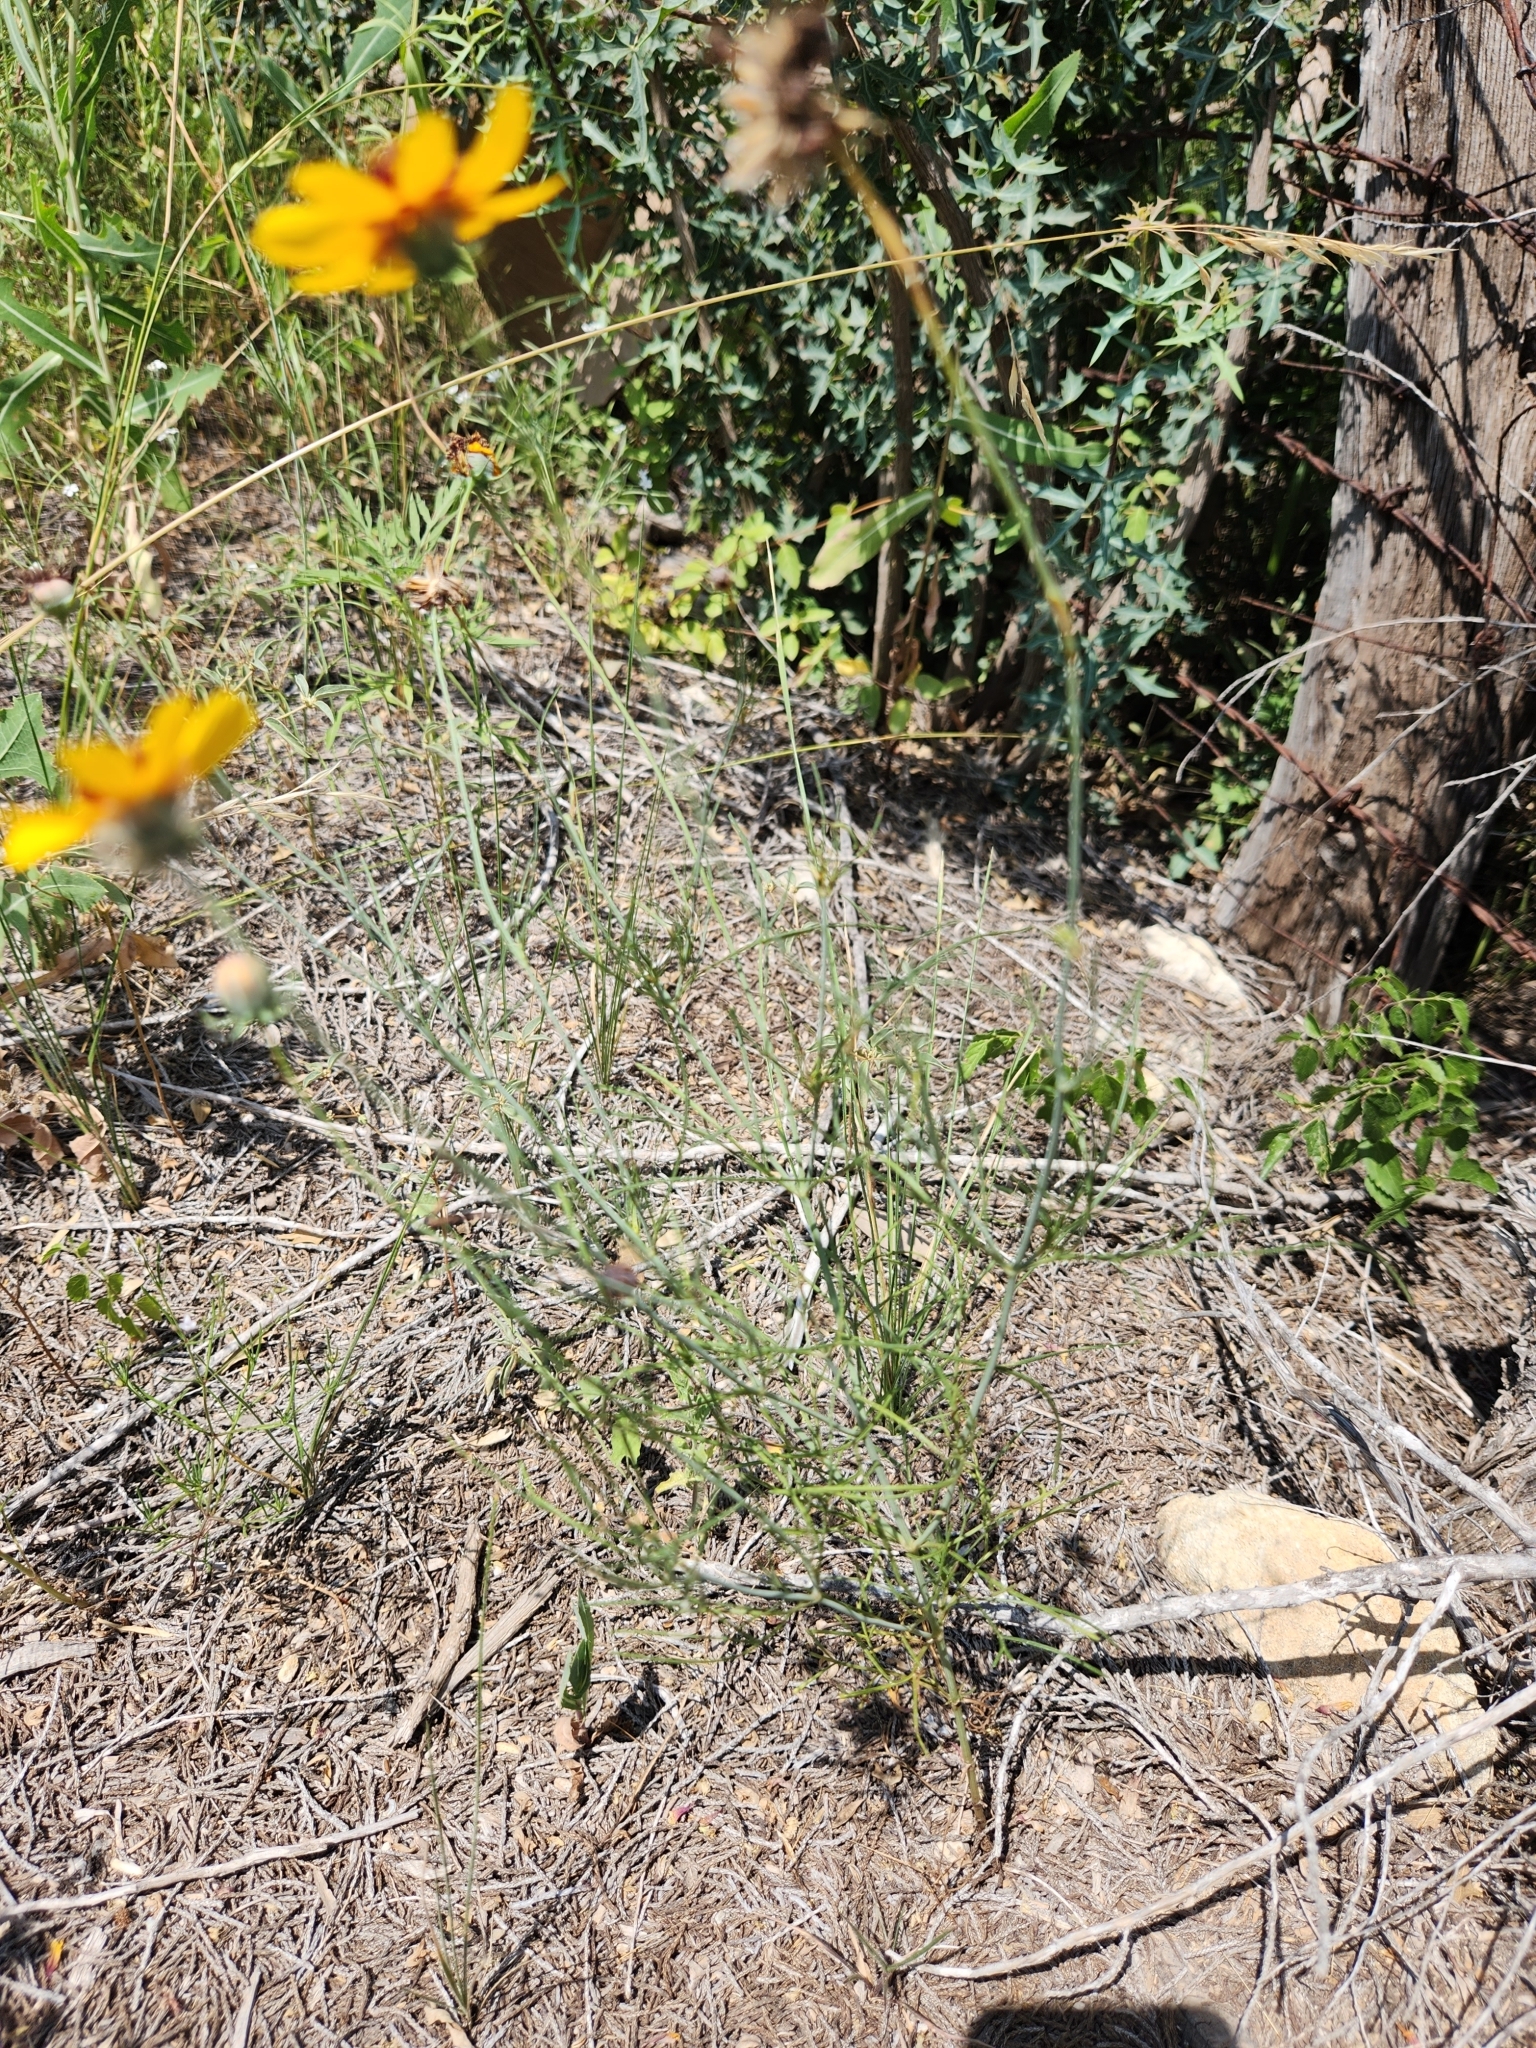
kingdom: Plantae
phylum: Tracheophyta
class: Magnoliopsida
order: Asterales
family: Asteraceae
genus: Thelesperma
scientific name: Thelesperma filifolium
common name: Stiff greenthread
